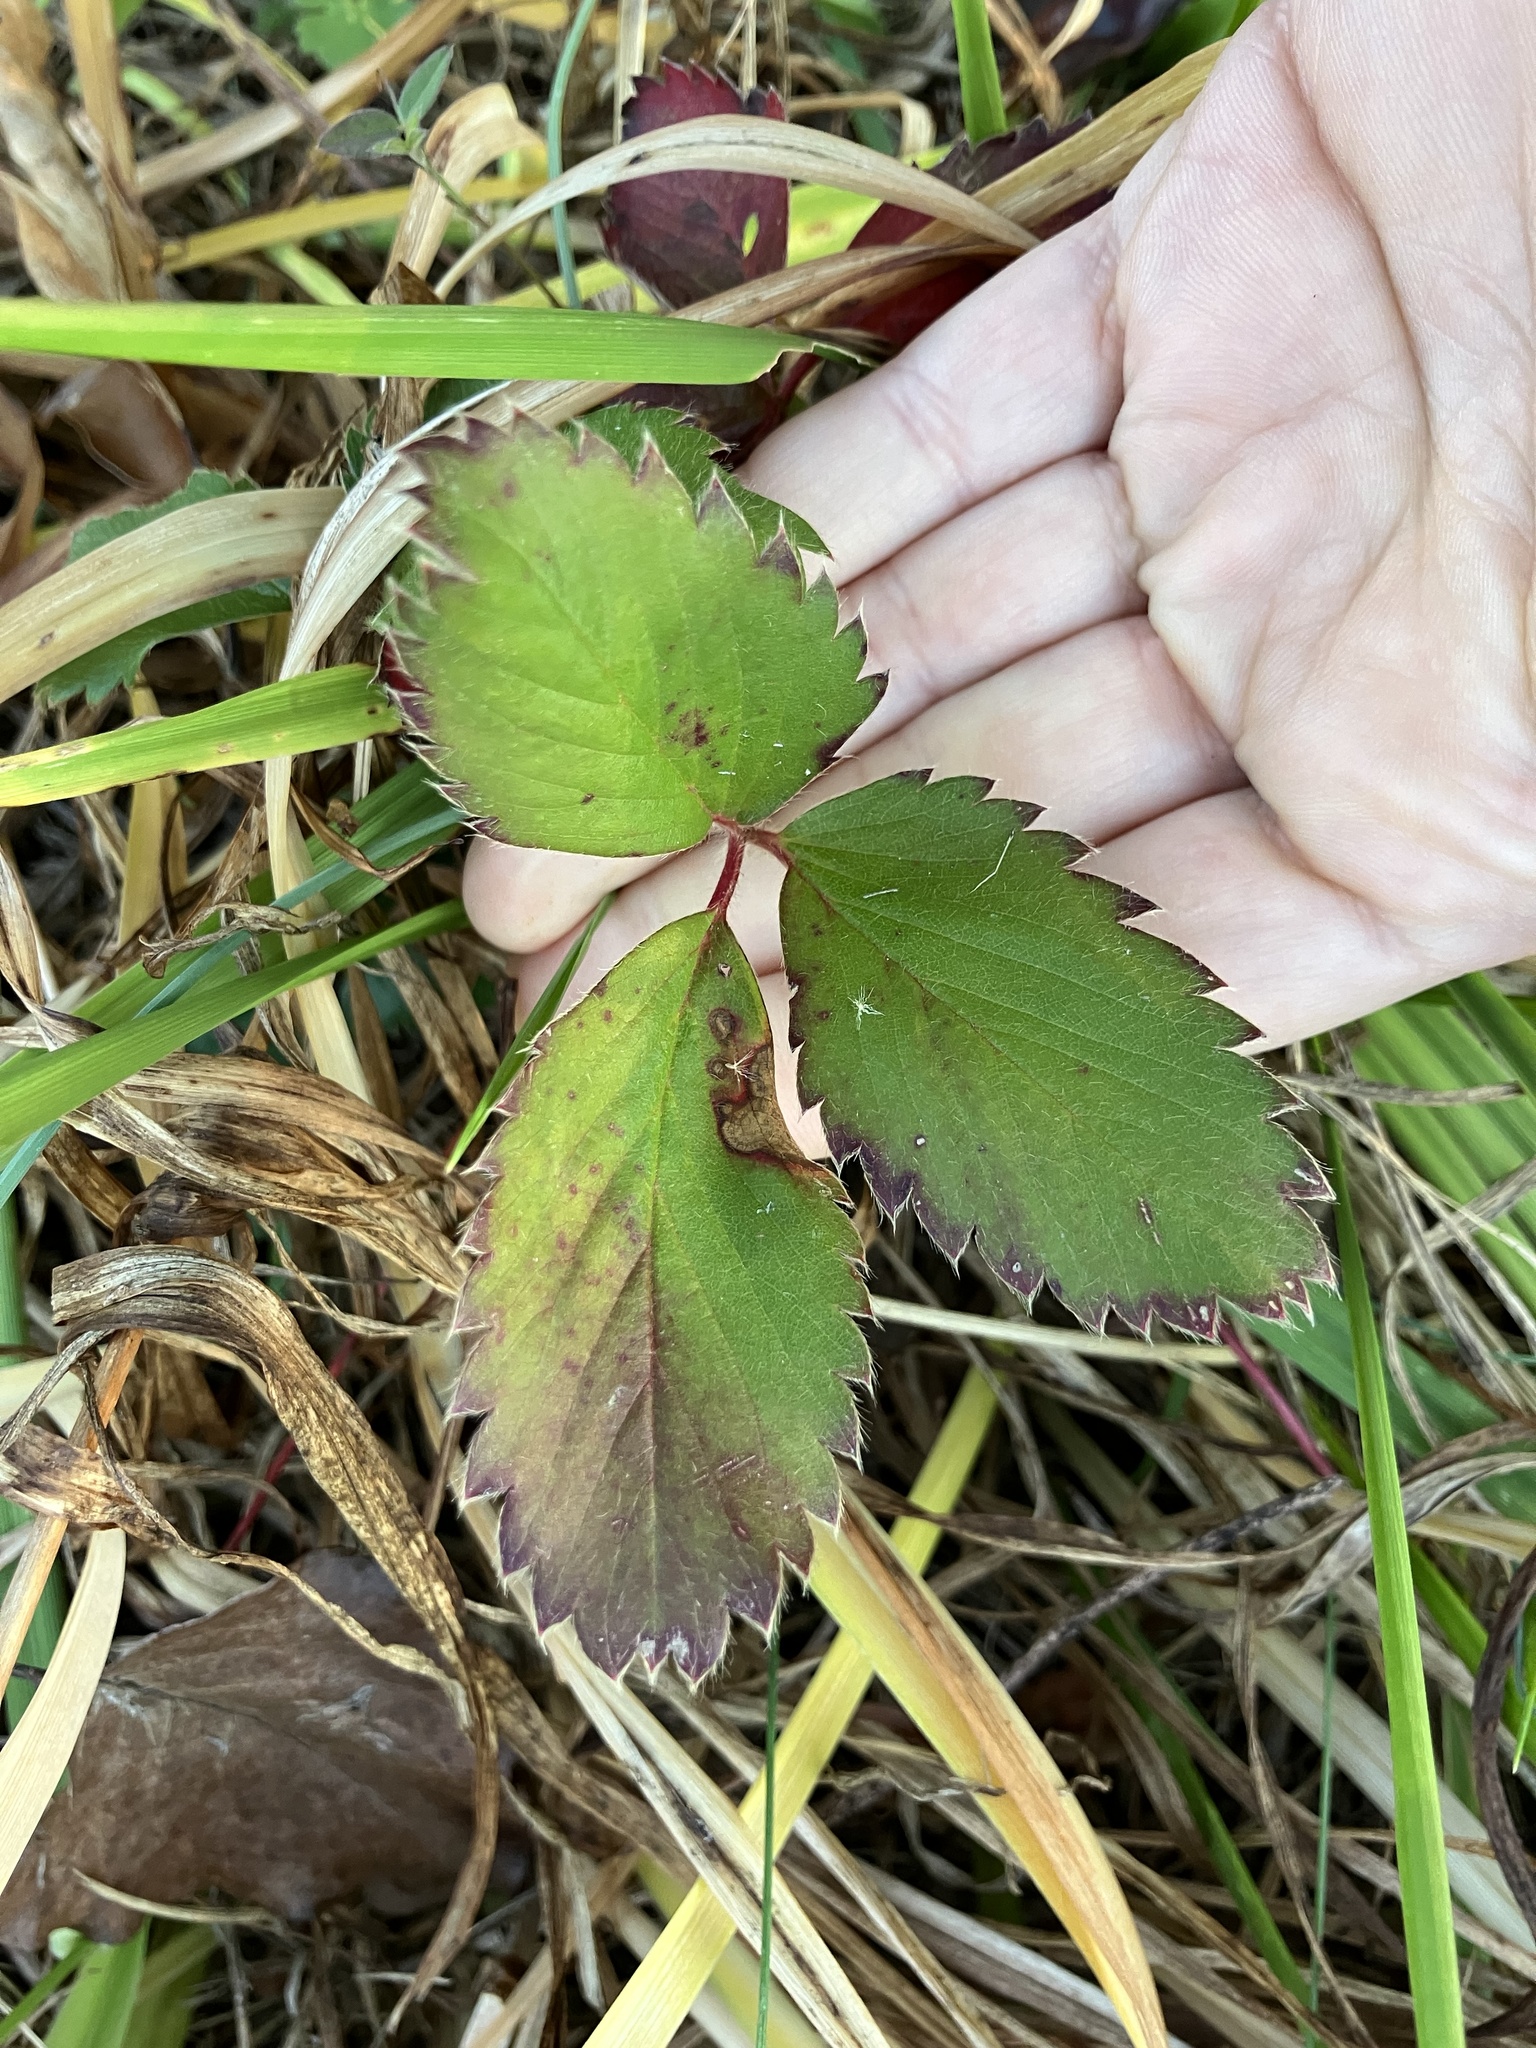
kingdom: Plantae
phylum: Tracheophyta
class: Magnoliopsida
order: Rosales
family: Rosaceae
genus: Fragaria
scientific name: Fragaria virginiana
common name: Thickleaved wild strawberry
